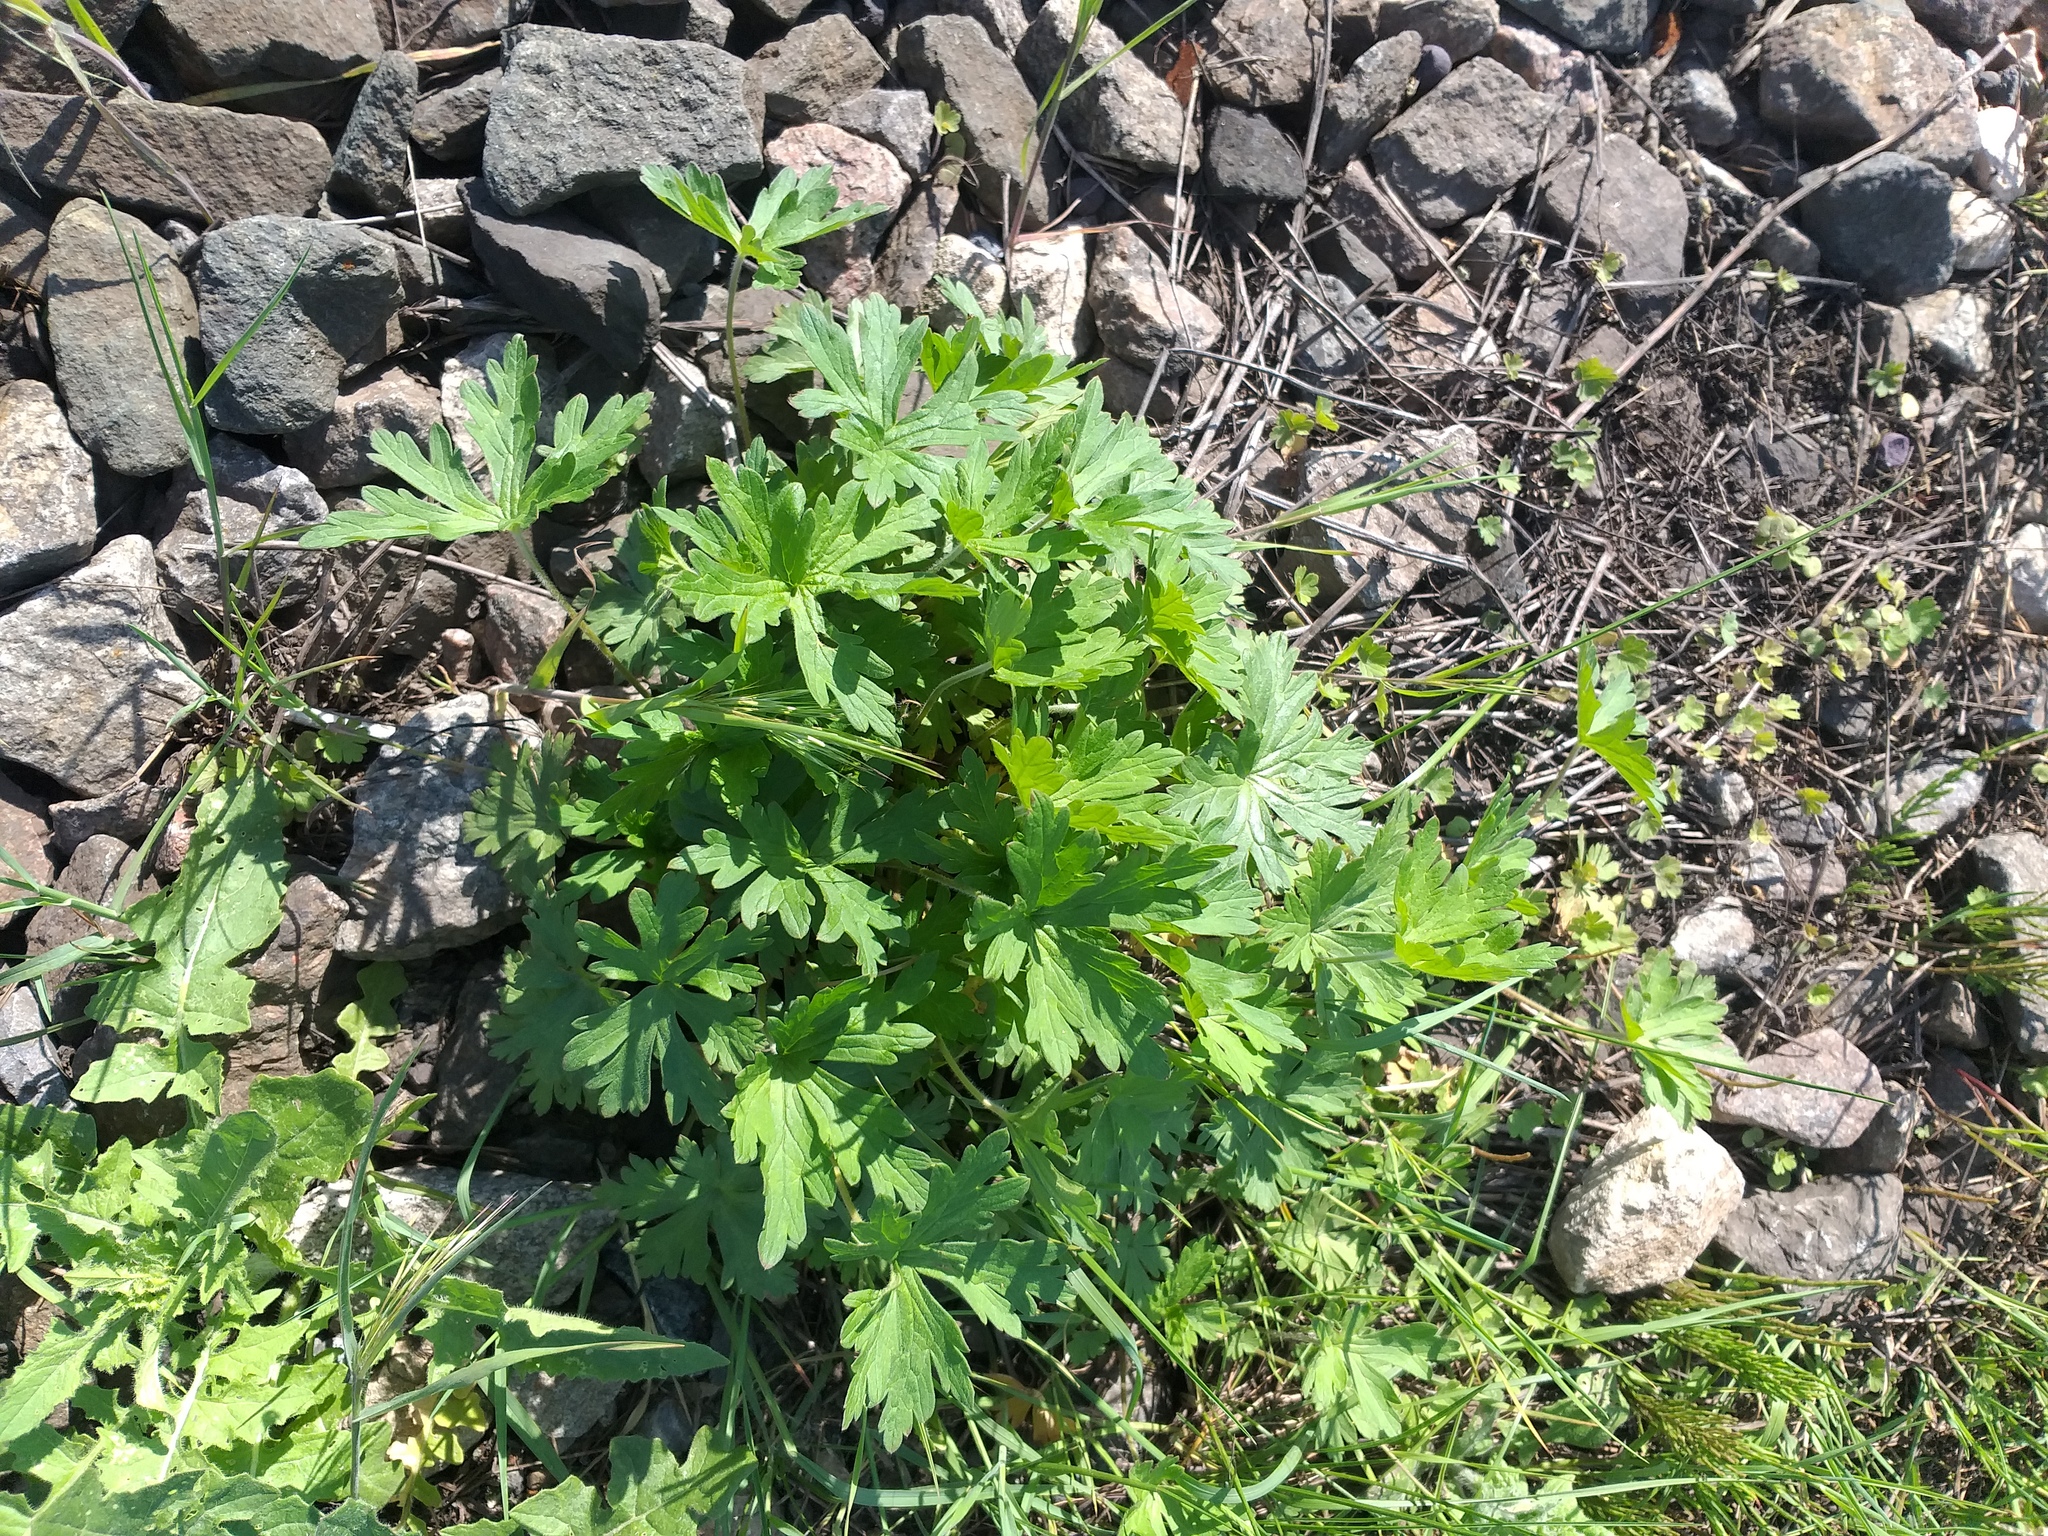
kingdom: Plantae
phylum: Tracheophyta
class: Magnoliopsida
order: Geraniales
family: Geraniaceae
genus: Geranium
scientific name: Geranium sibiricum
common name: Siberian crane's-bill
